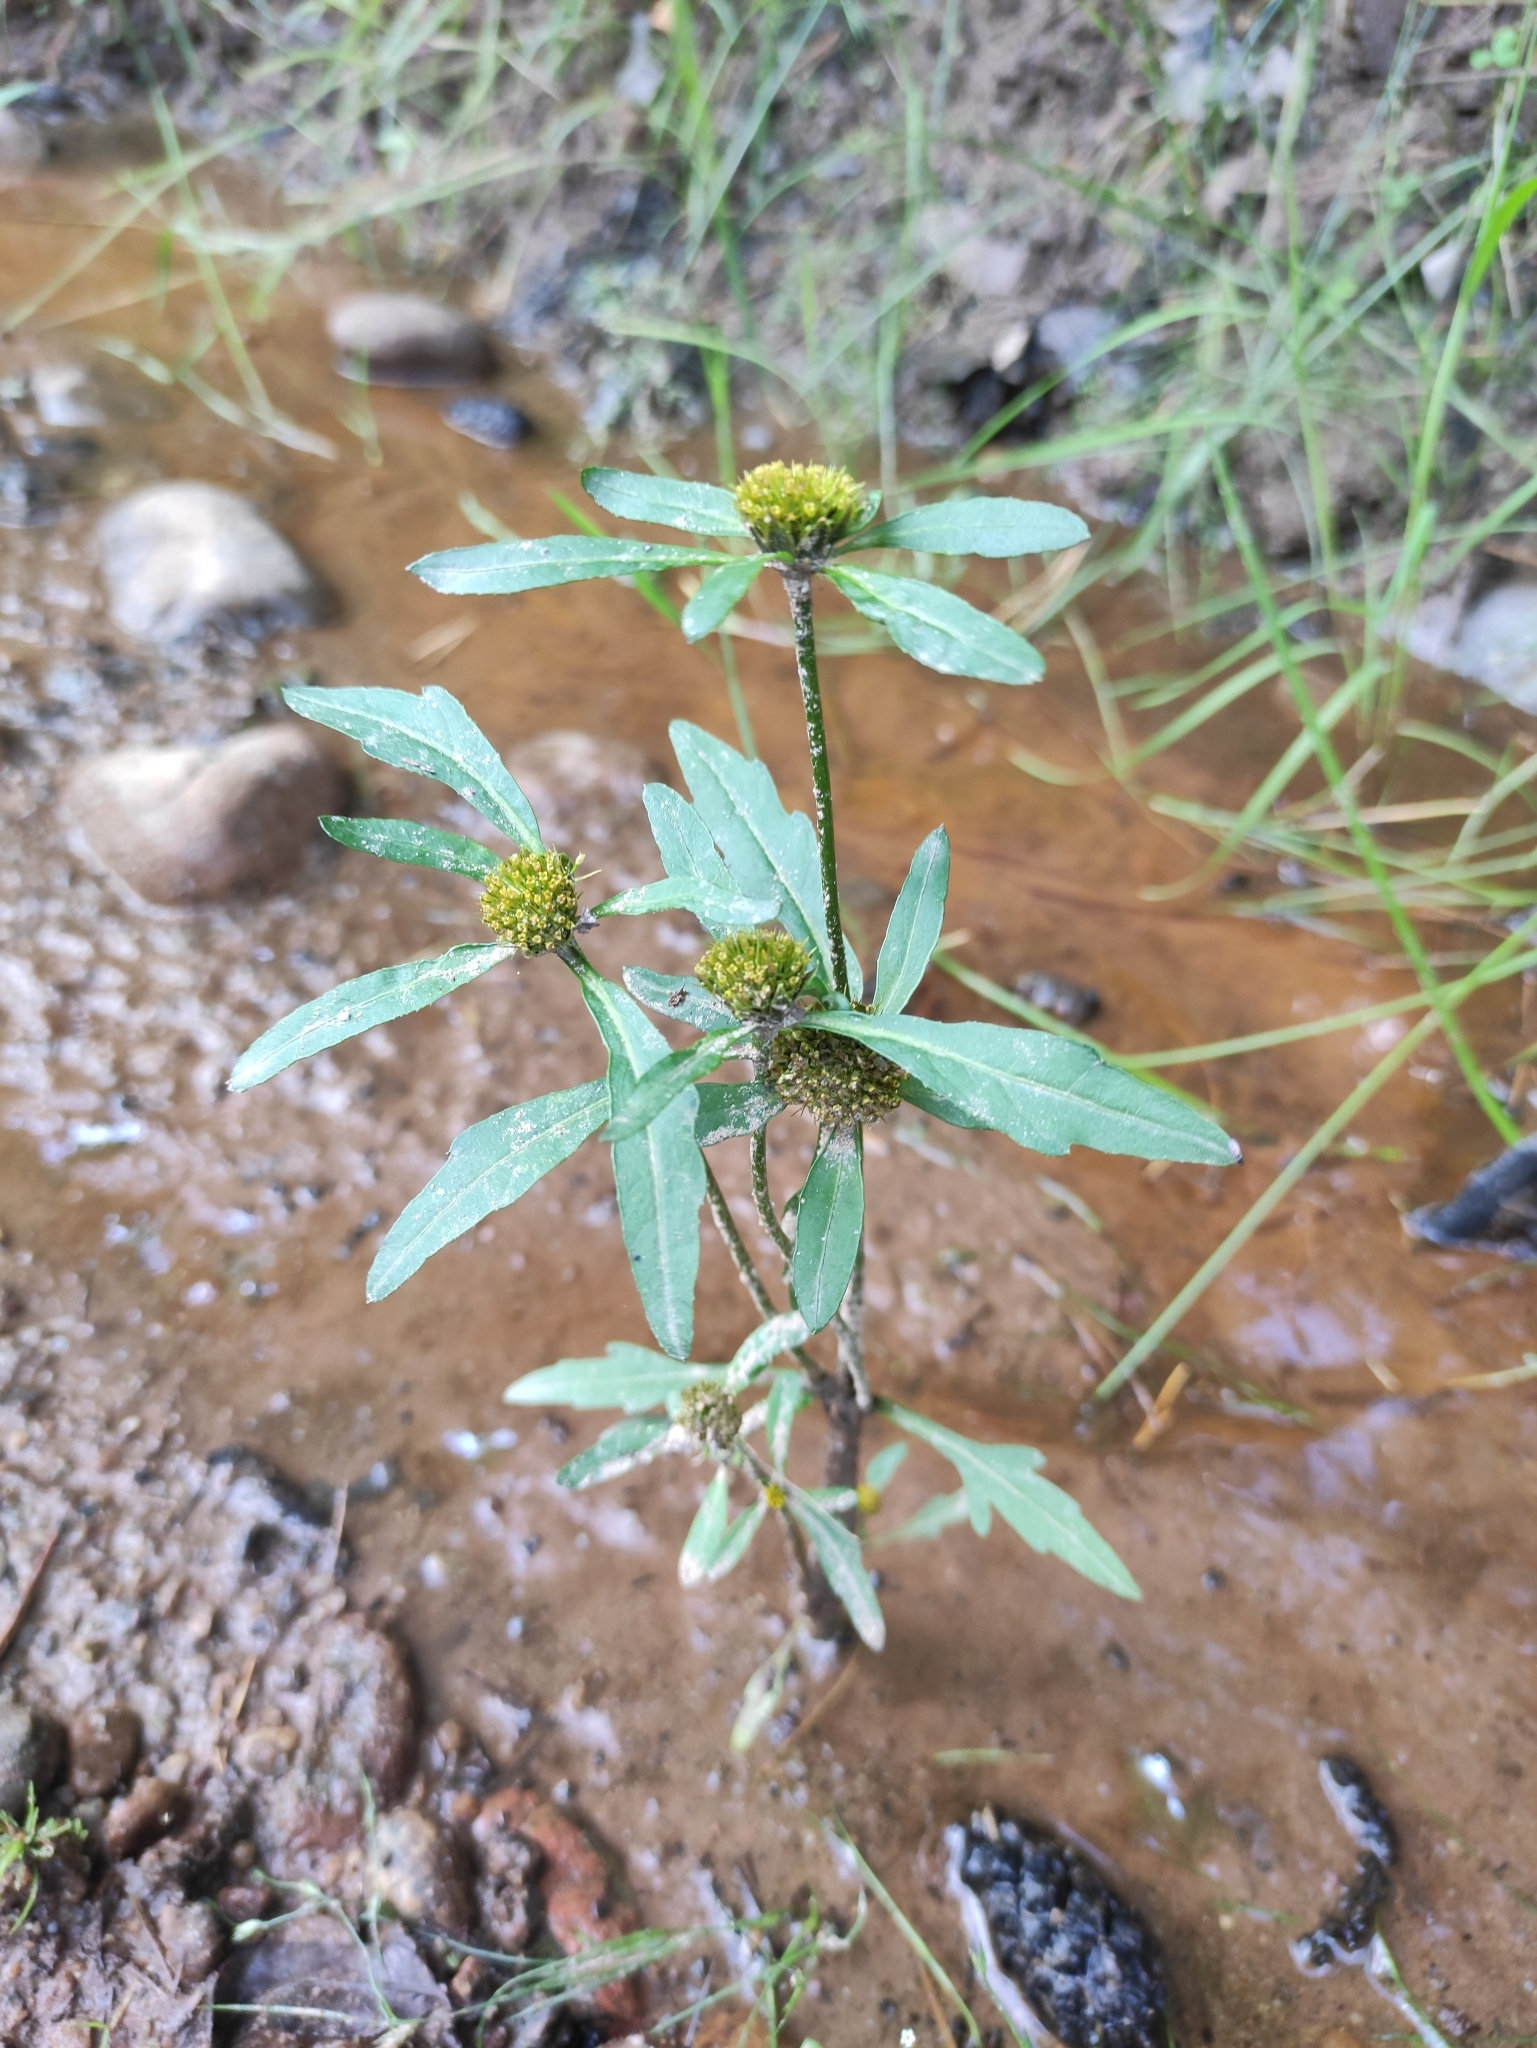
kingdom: Plantae
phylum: Tracheophyta
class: Magnoliopsida
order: Asterales
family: Asteraceae
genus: Bidens
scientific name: Bidens radiata
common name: Radiating bur-marigold
